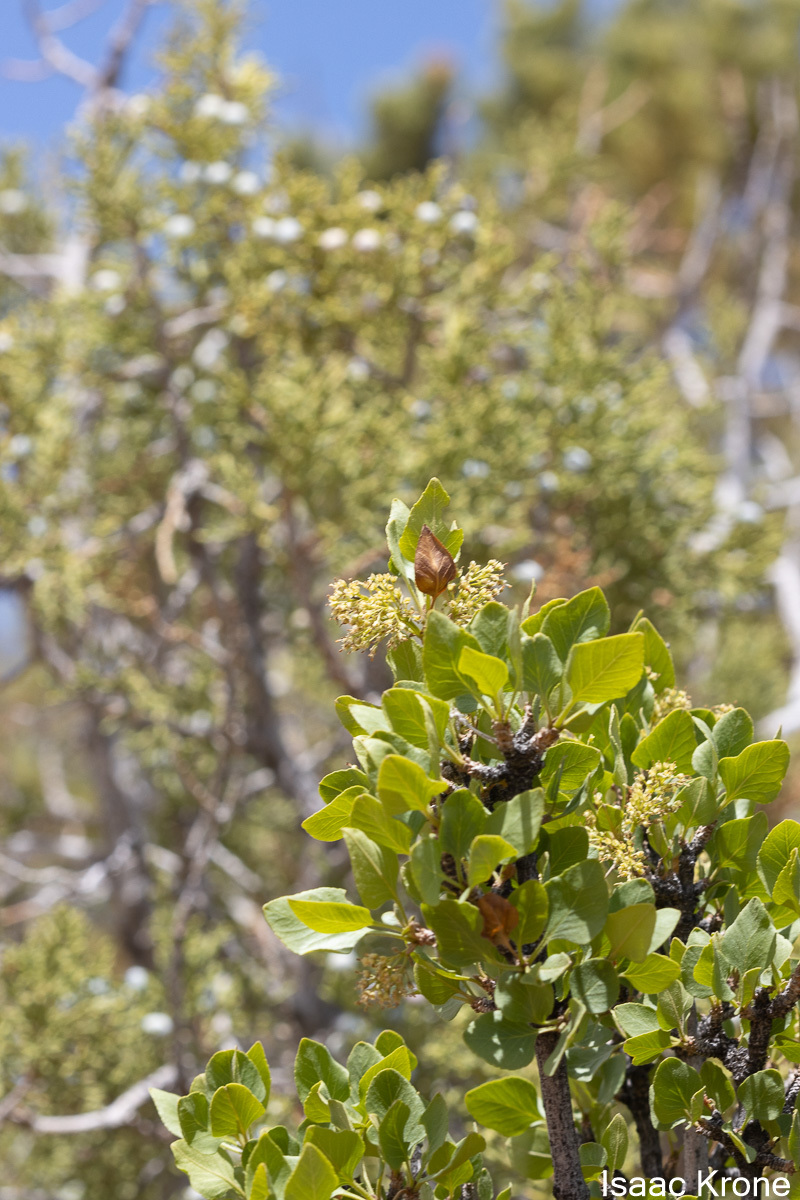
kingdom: Plantae
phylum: Tracheophyta
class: Magnoliopsida
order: Lamiales
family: Oleaceae
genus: Fraxinus
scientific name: Fraxinus anomala
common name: Utah ash
